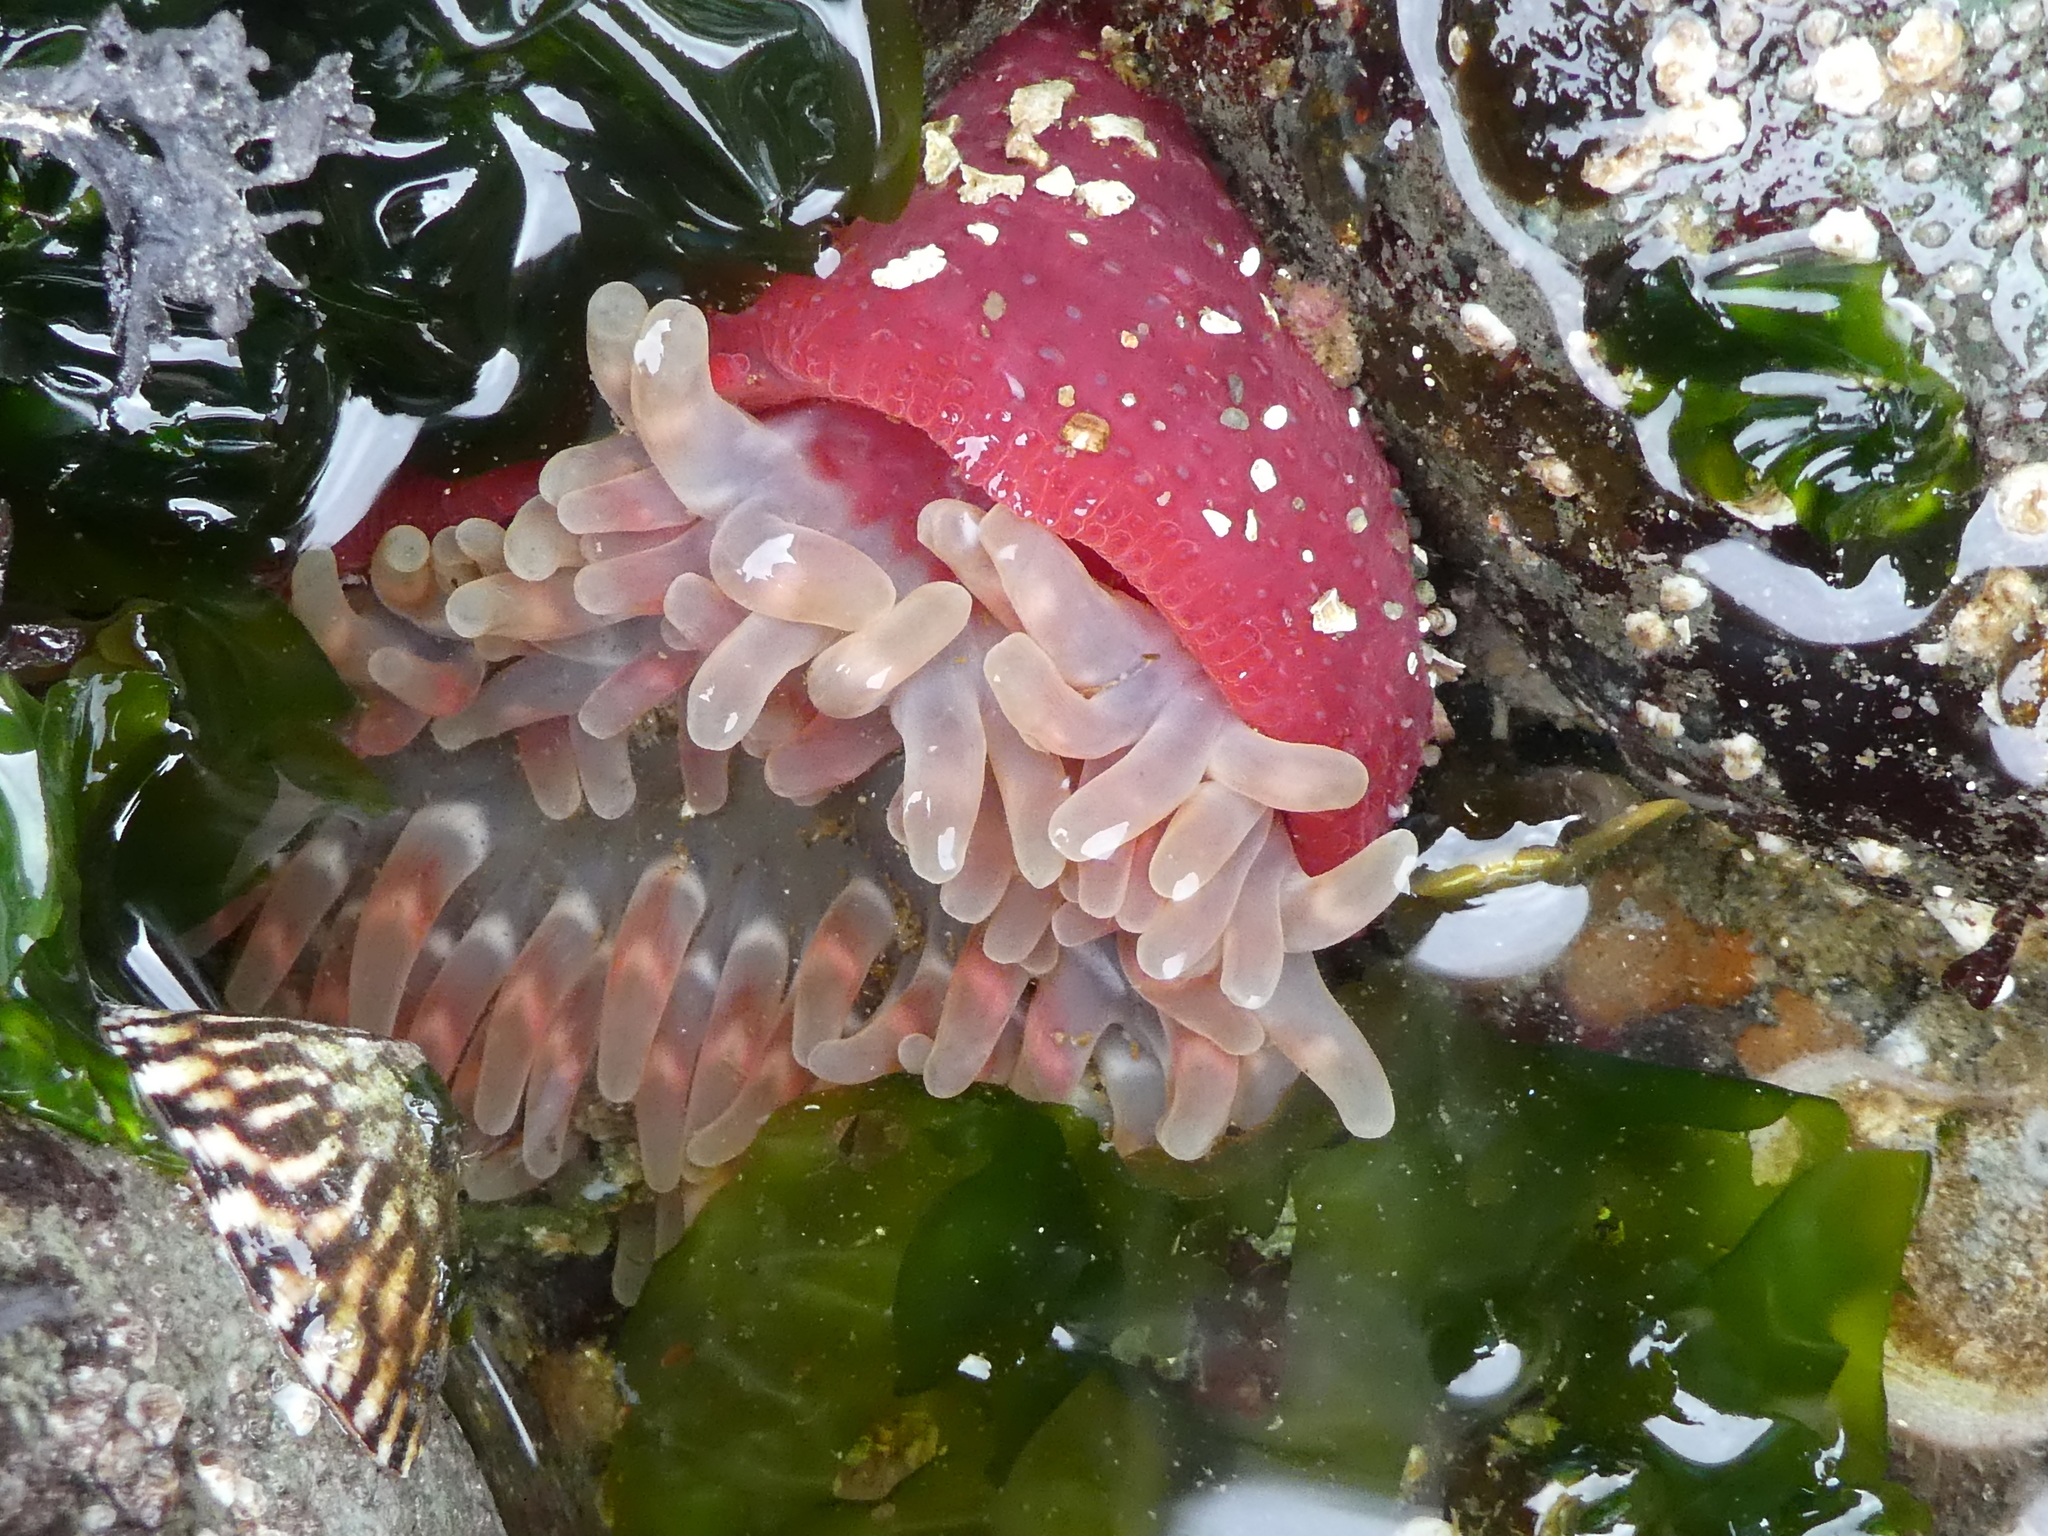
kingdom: Animalia
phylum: Cnidaria
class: Anthozoa
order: Actiniaria
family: Actiniidae
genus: Urticina
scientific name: Urticina clandestina
